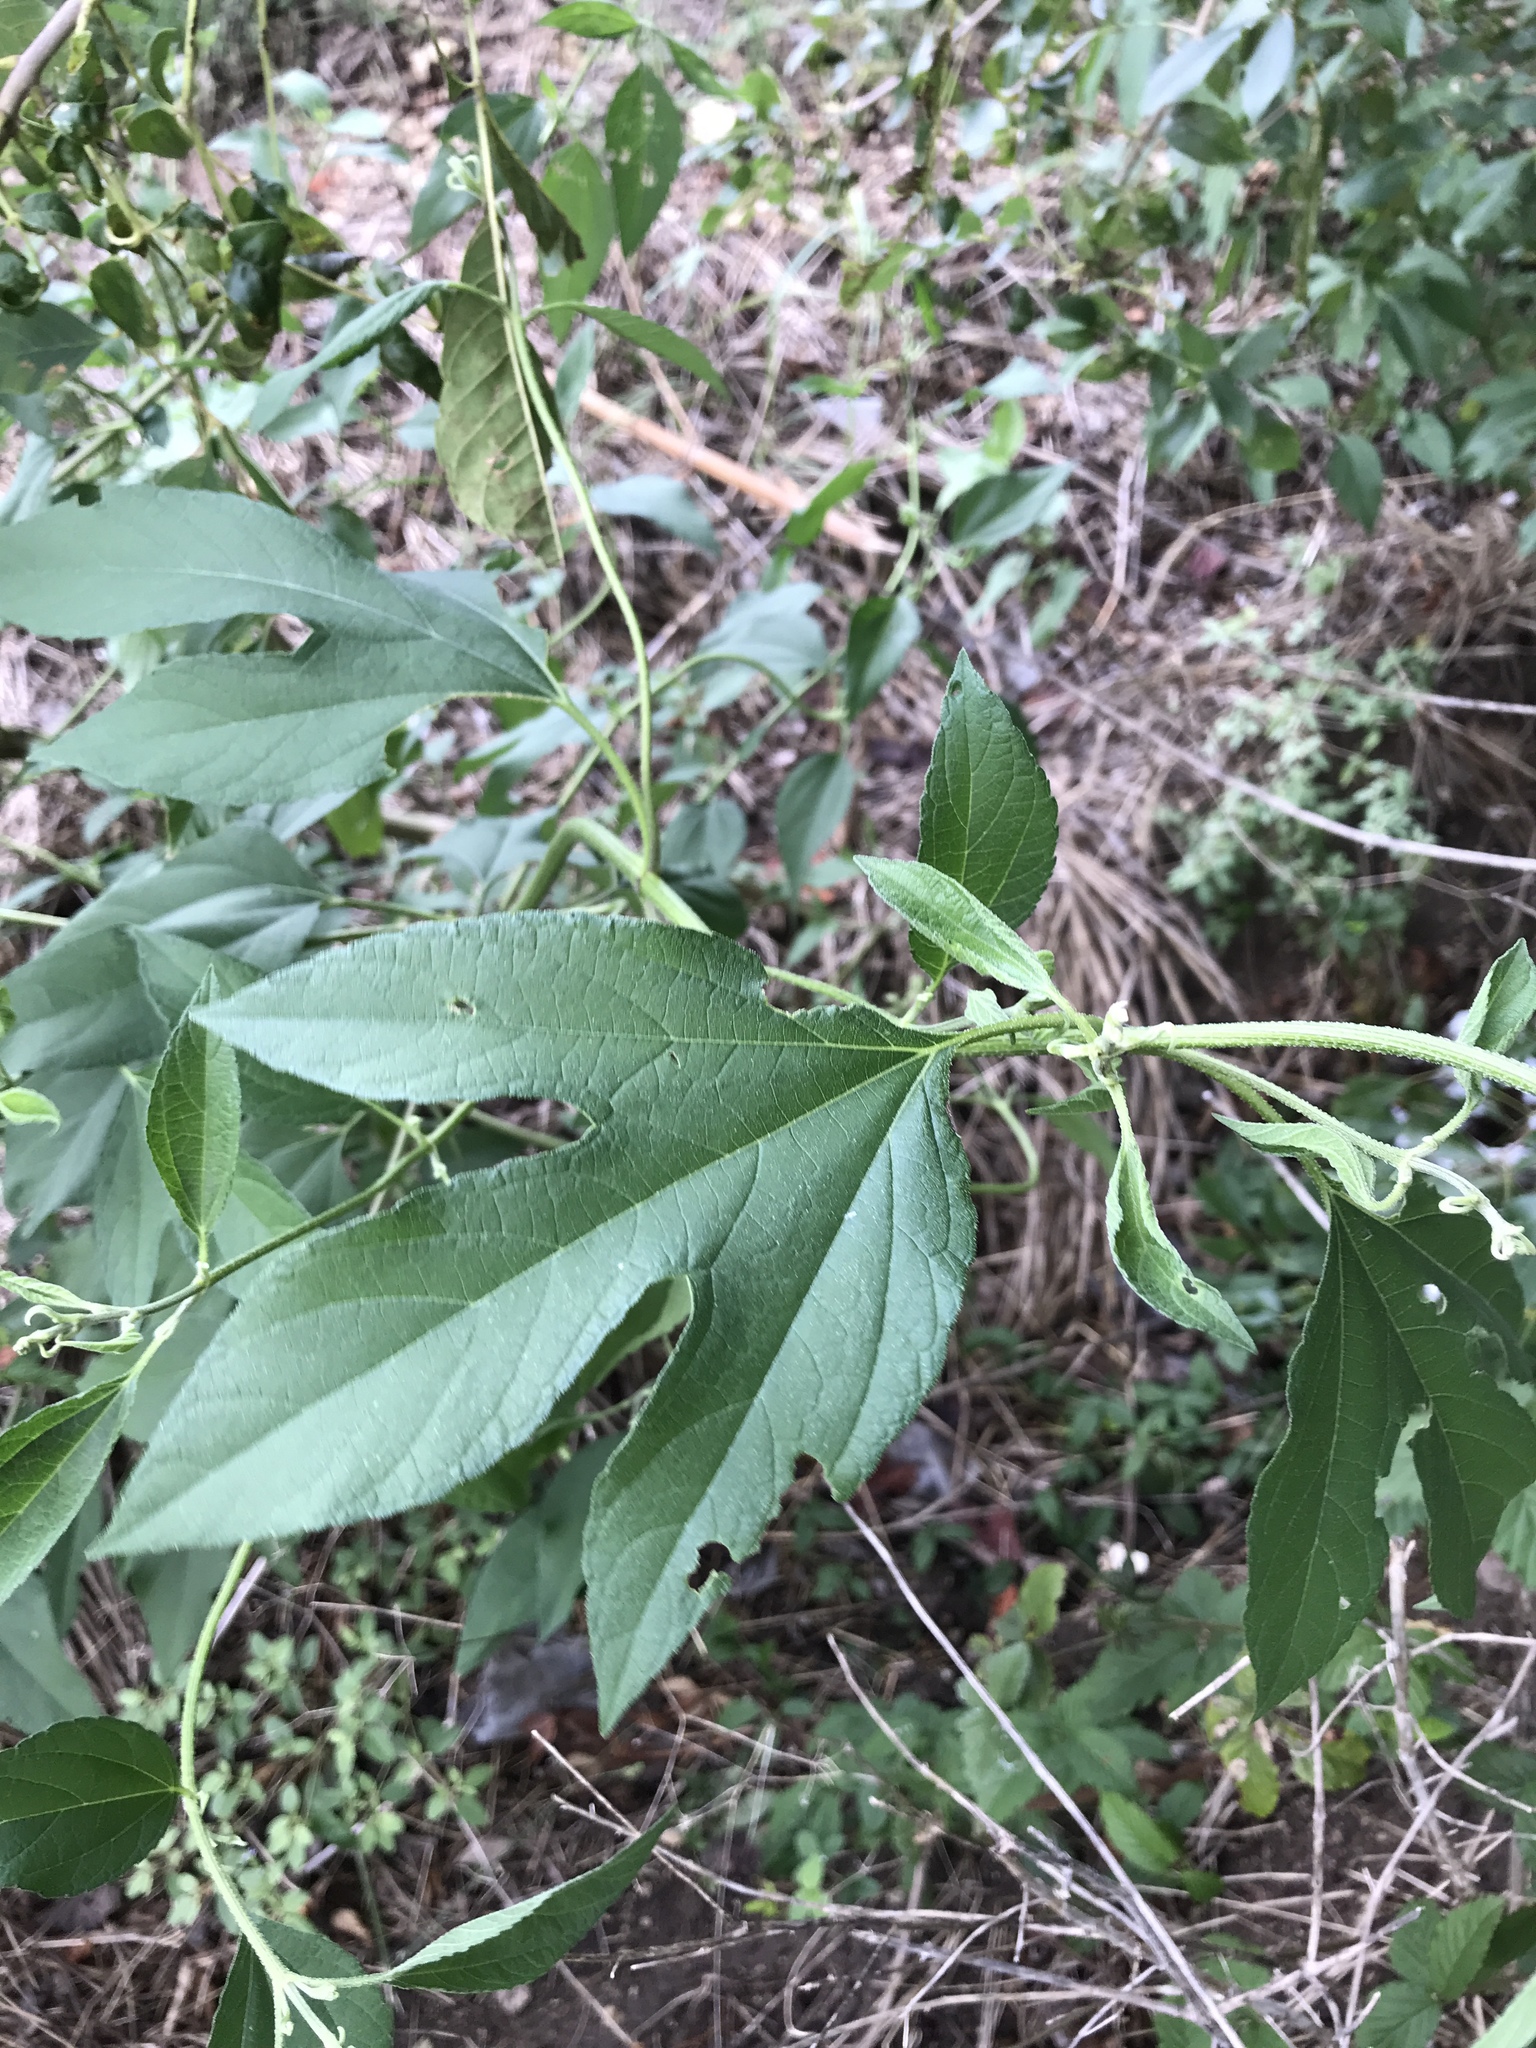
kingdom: Plantae
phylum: Tracheophyta
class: Magnoliopsida
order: Asterales
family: Asteraceae
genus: Ambrosia
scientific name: Ambrosia trifida
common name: Giant ragweed
